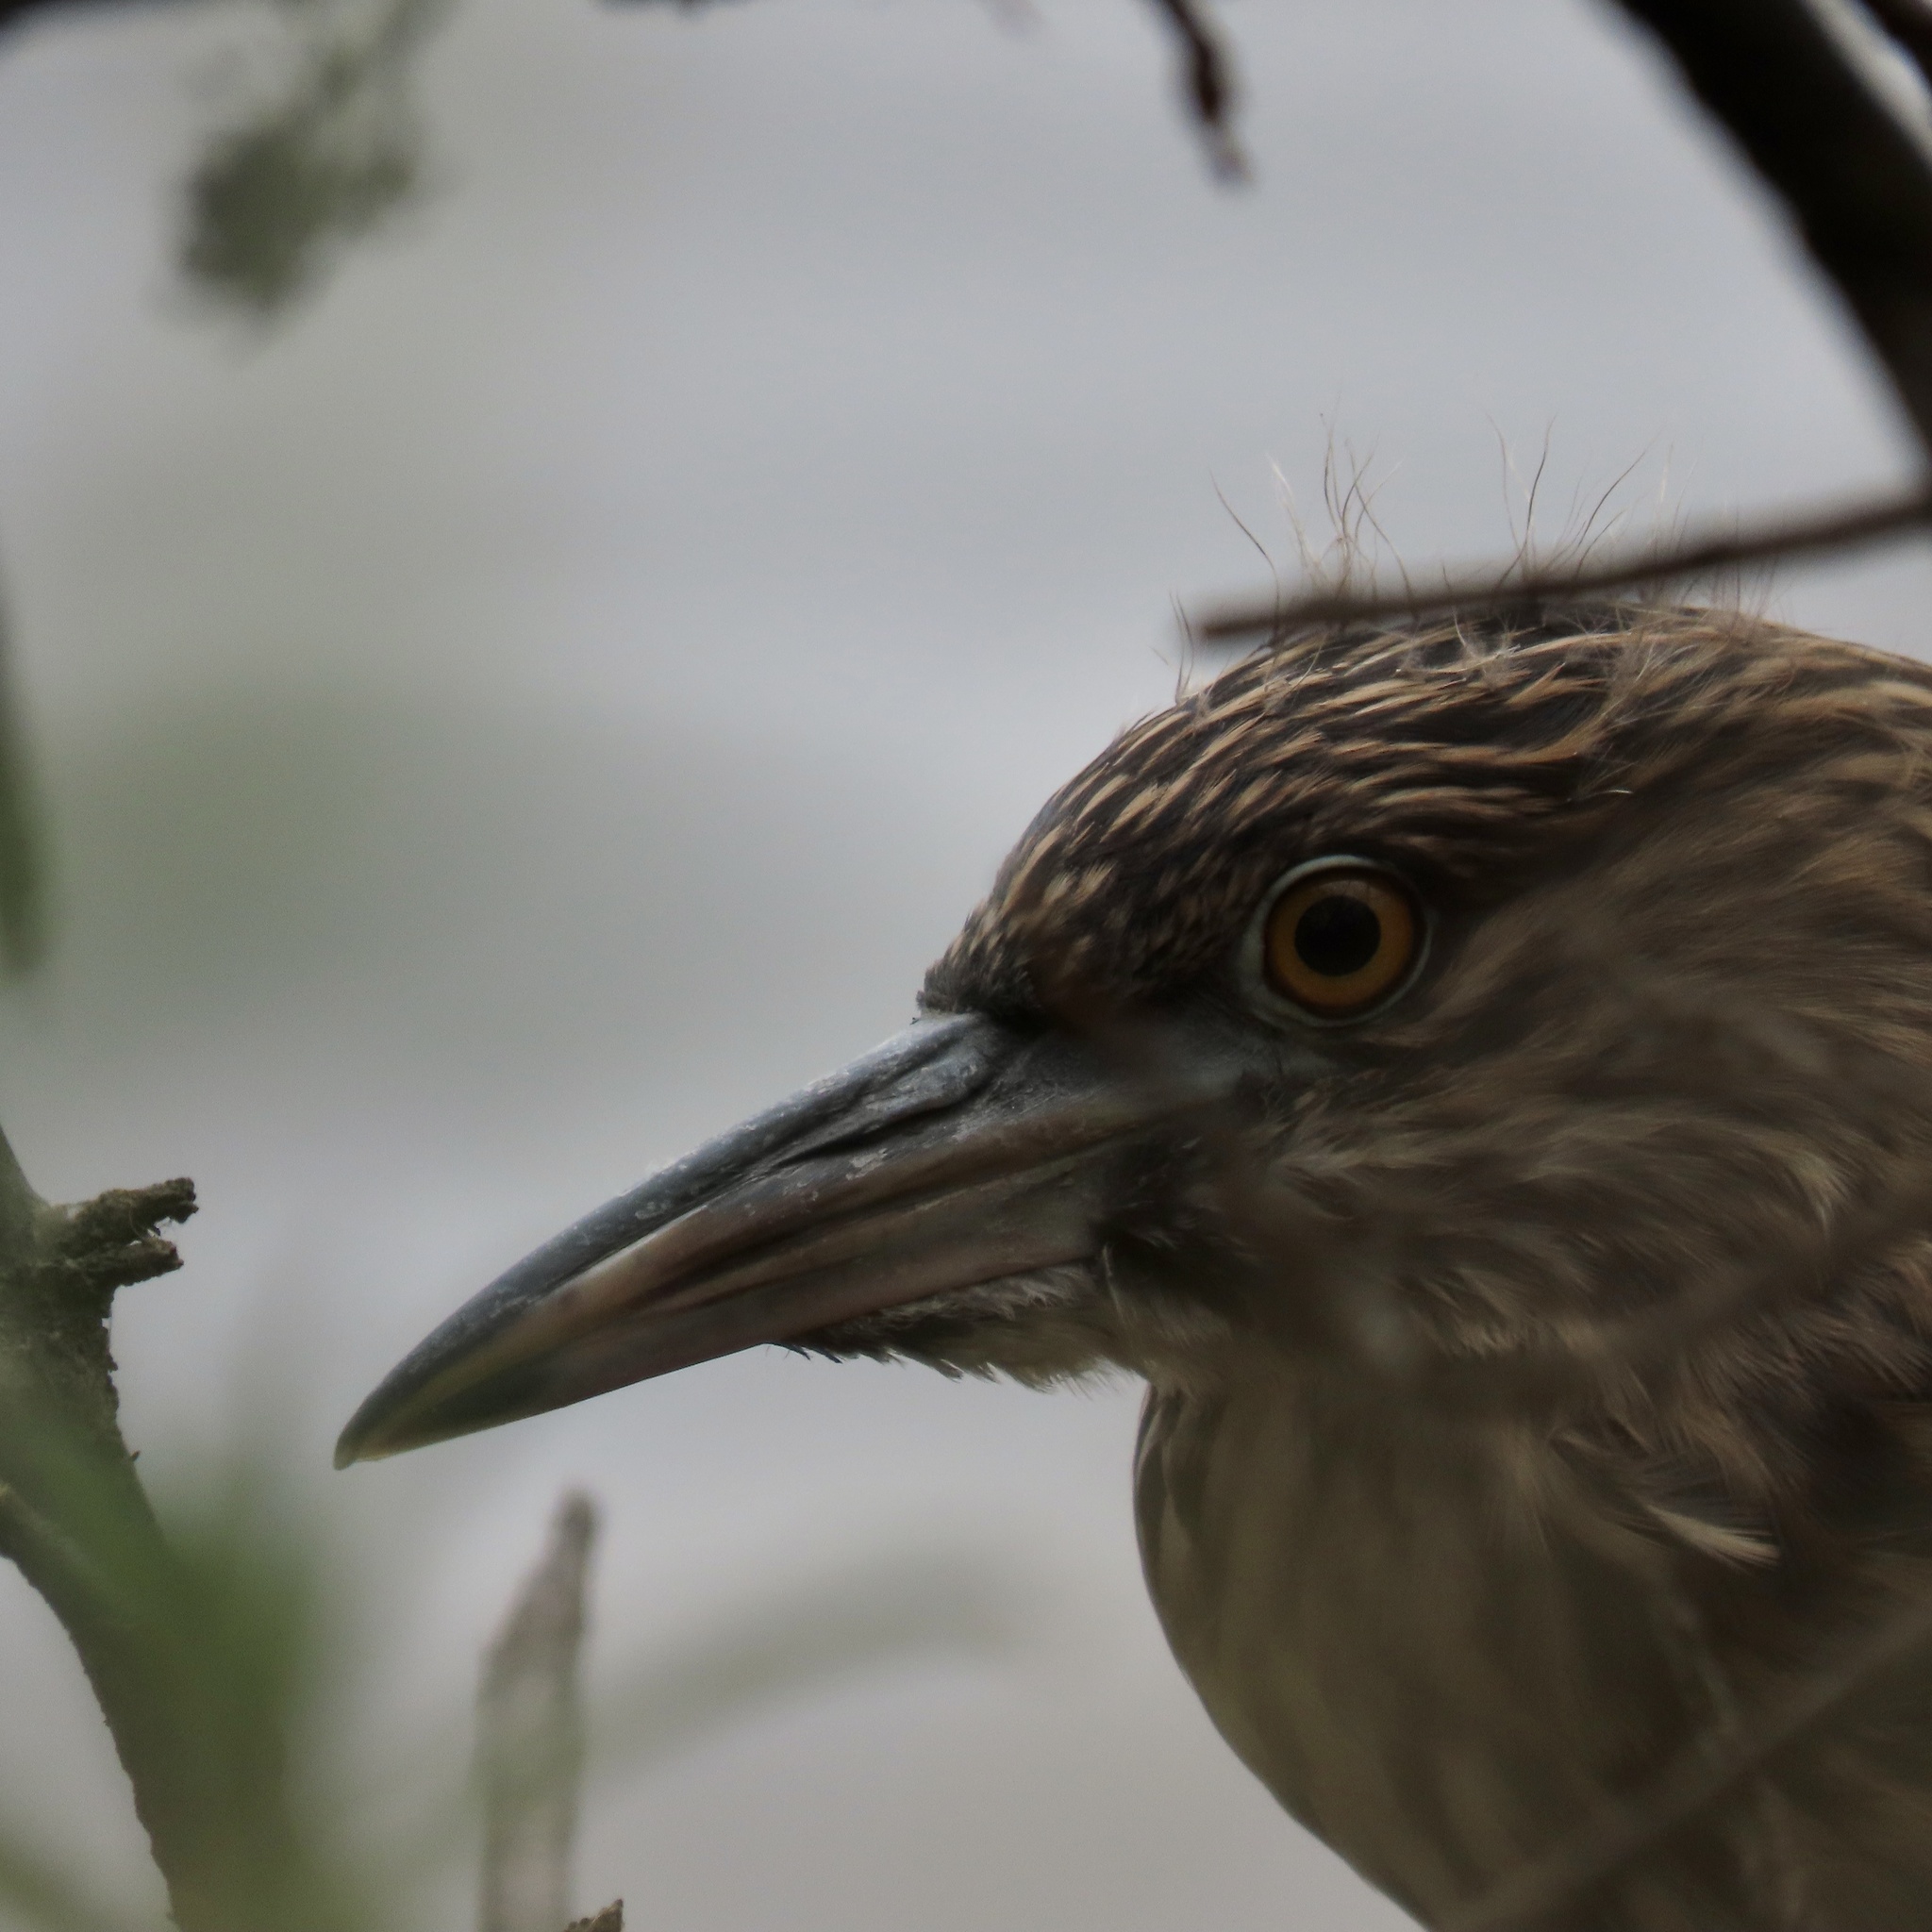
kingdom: Animalia
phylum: Chordata
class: Aves
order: Pelecaniformes
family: Ardeidae
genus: Nycticorax
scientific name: Nycticorax nycticorax
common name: Black-crowned night heron
